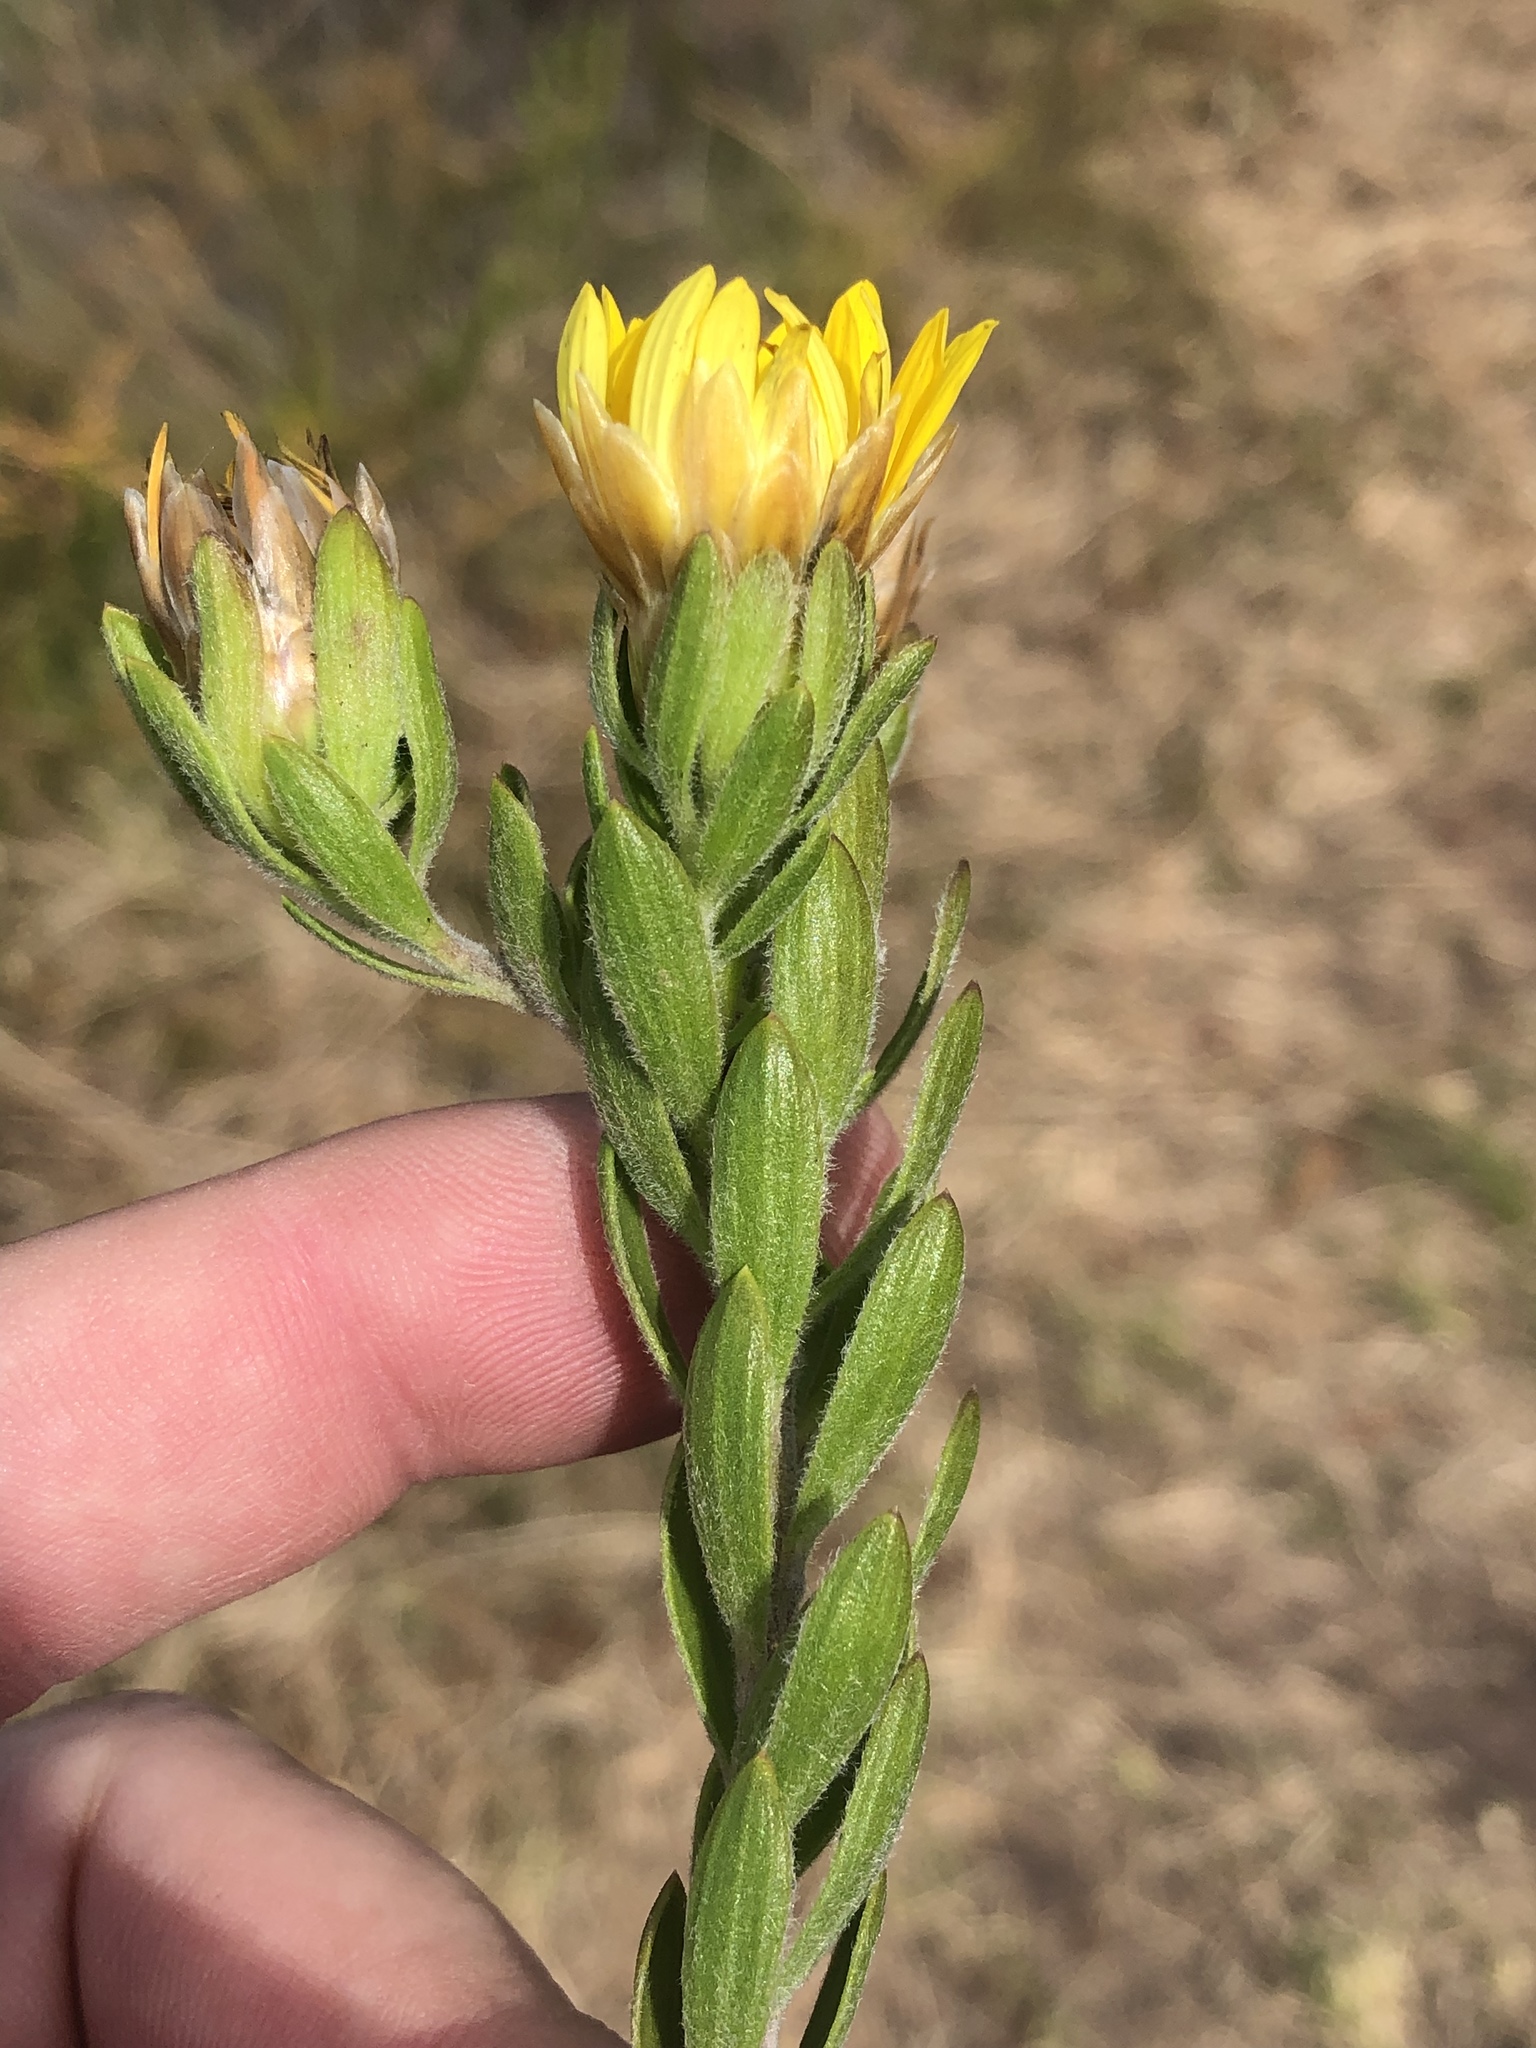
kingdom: Plantae
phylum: Tracheophyta
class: Magnoliopsida
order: Asterales
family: Asteraceae
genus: Oedera
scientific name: Oedera calycina
